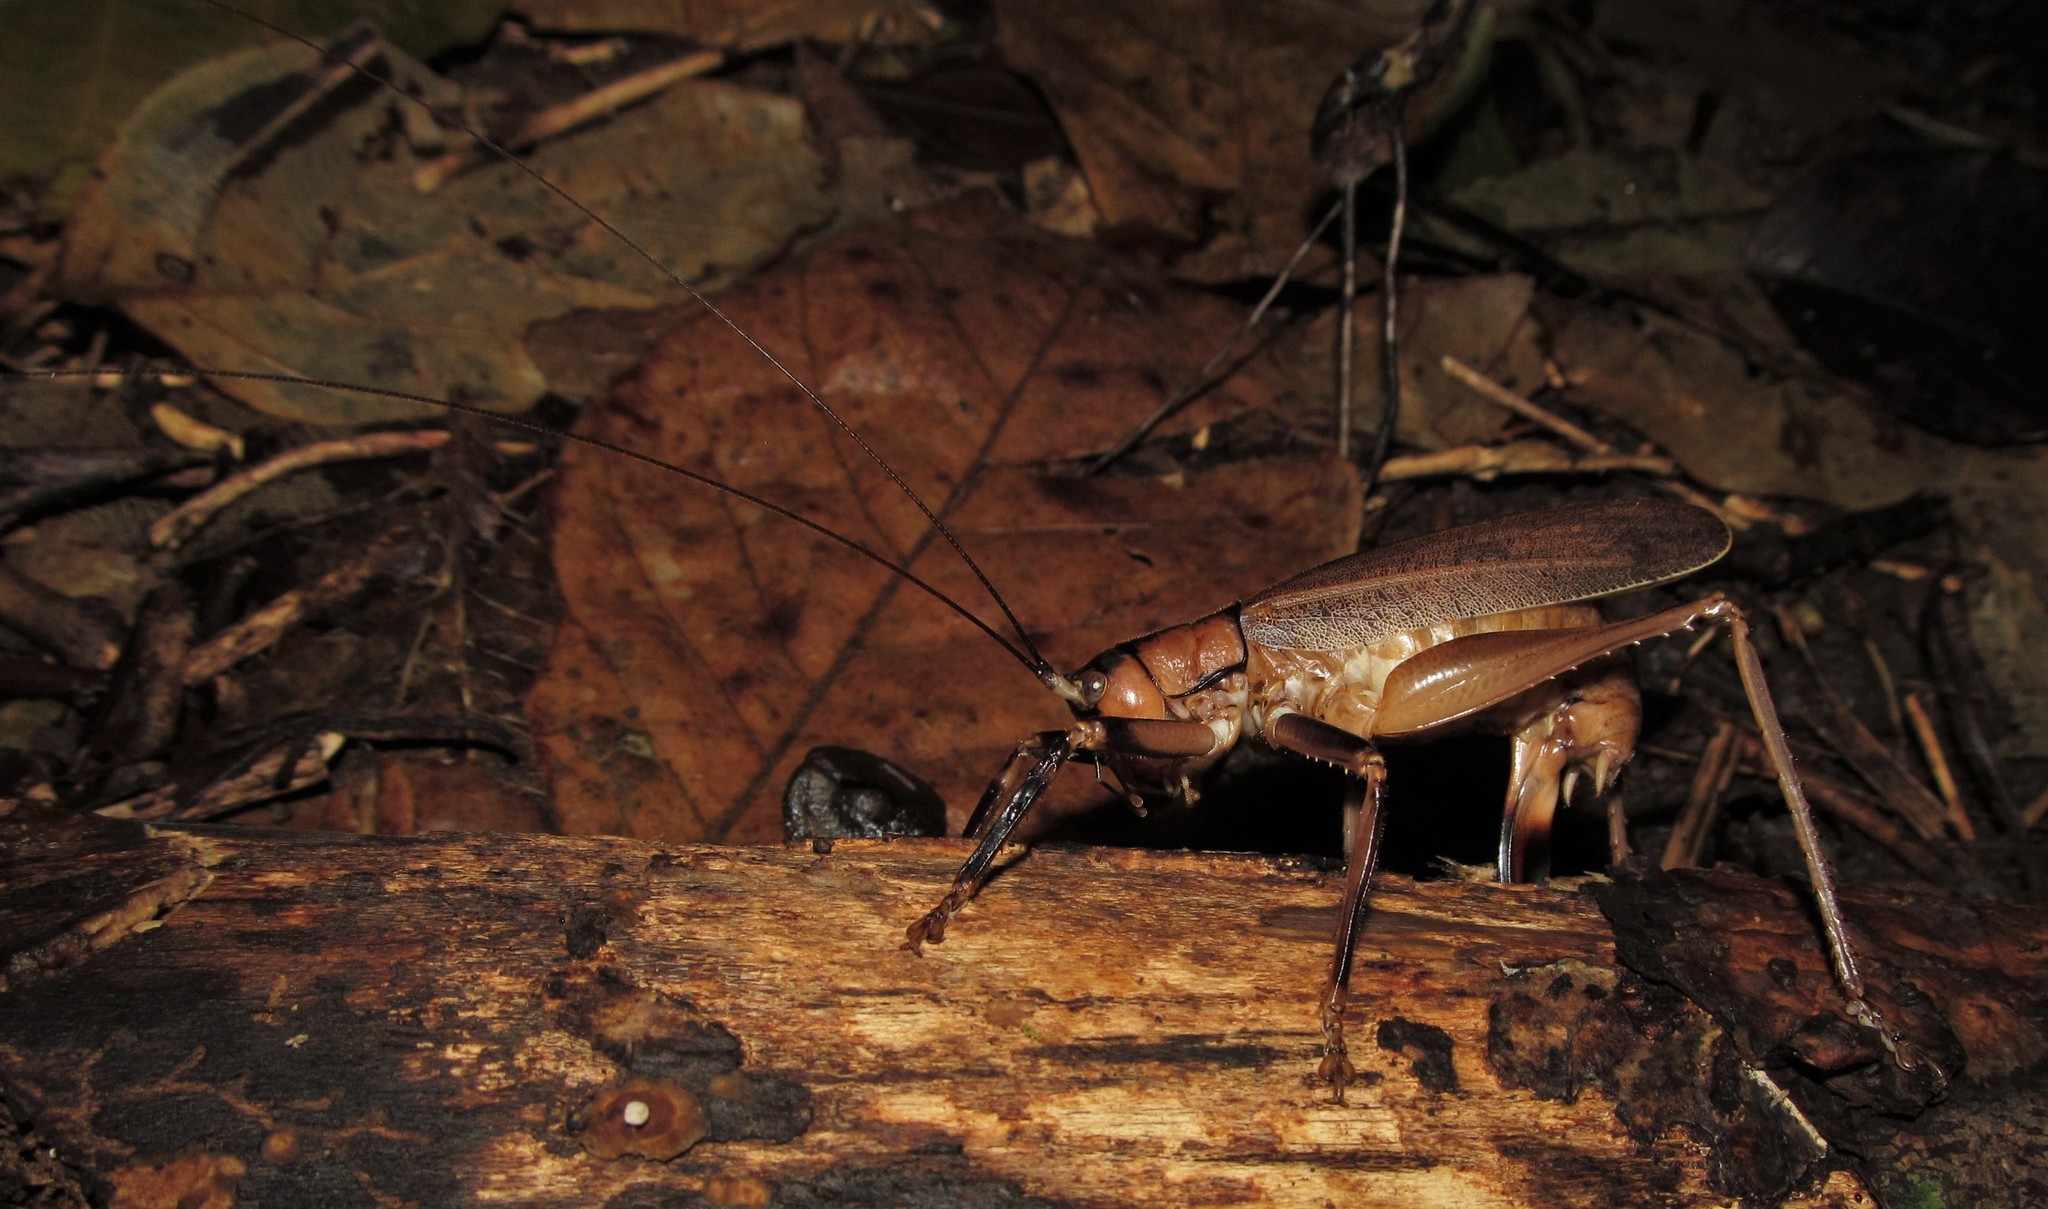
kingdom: Animalia
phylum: Arthropoda
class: Insecta
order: Orthoptera
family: Tettigoniidae
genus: Melanonotus
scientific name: Melanonotus septentrionalis
